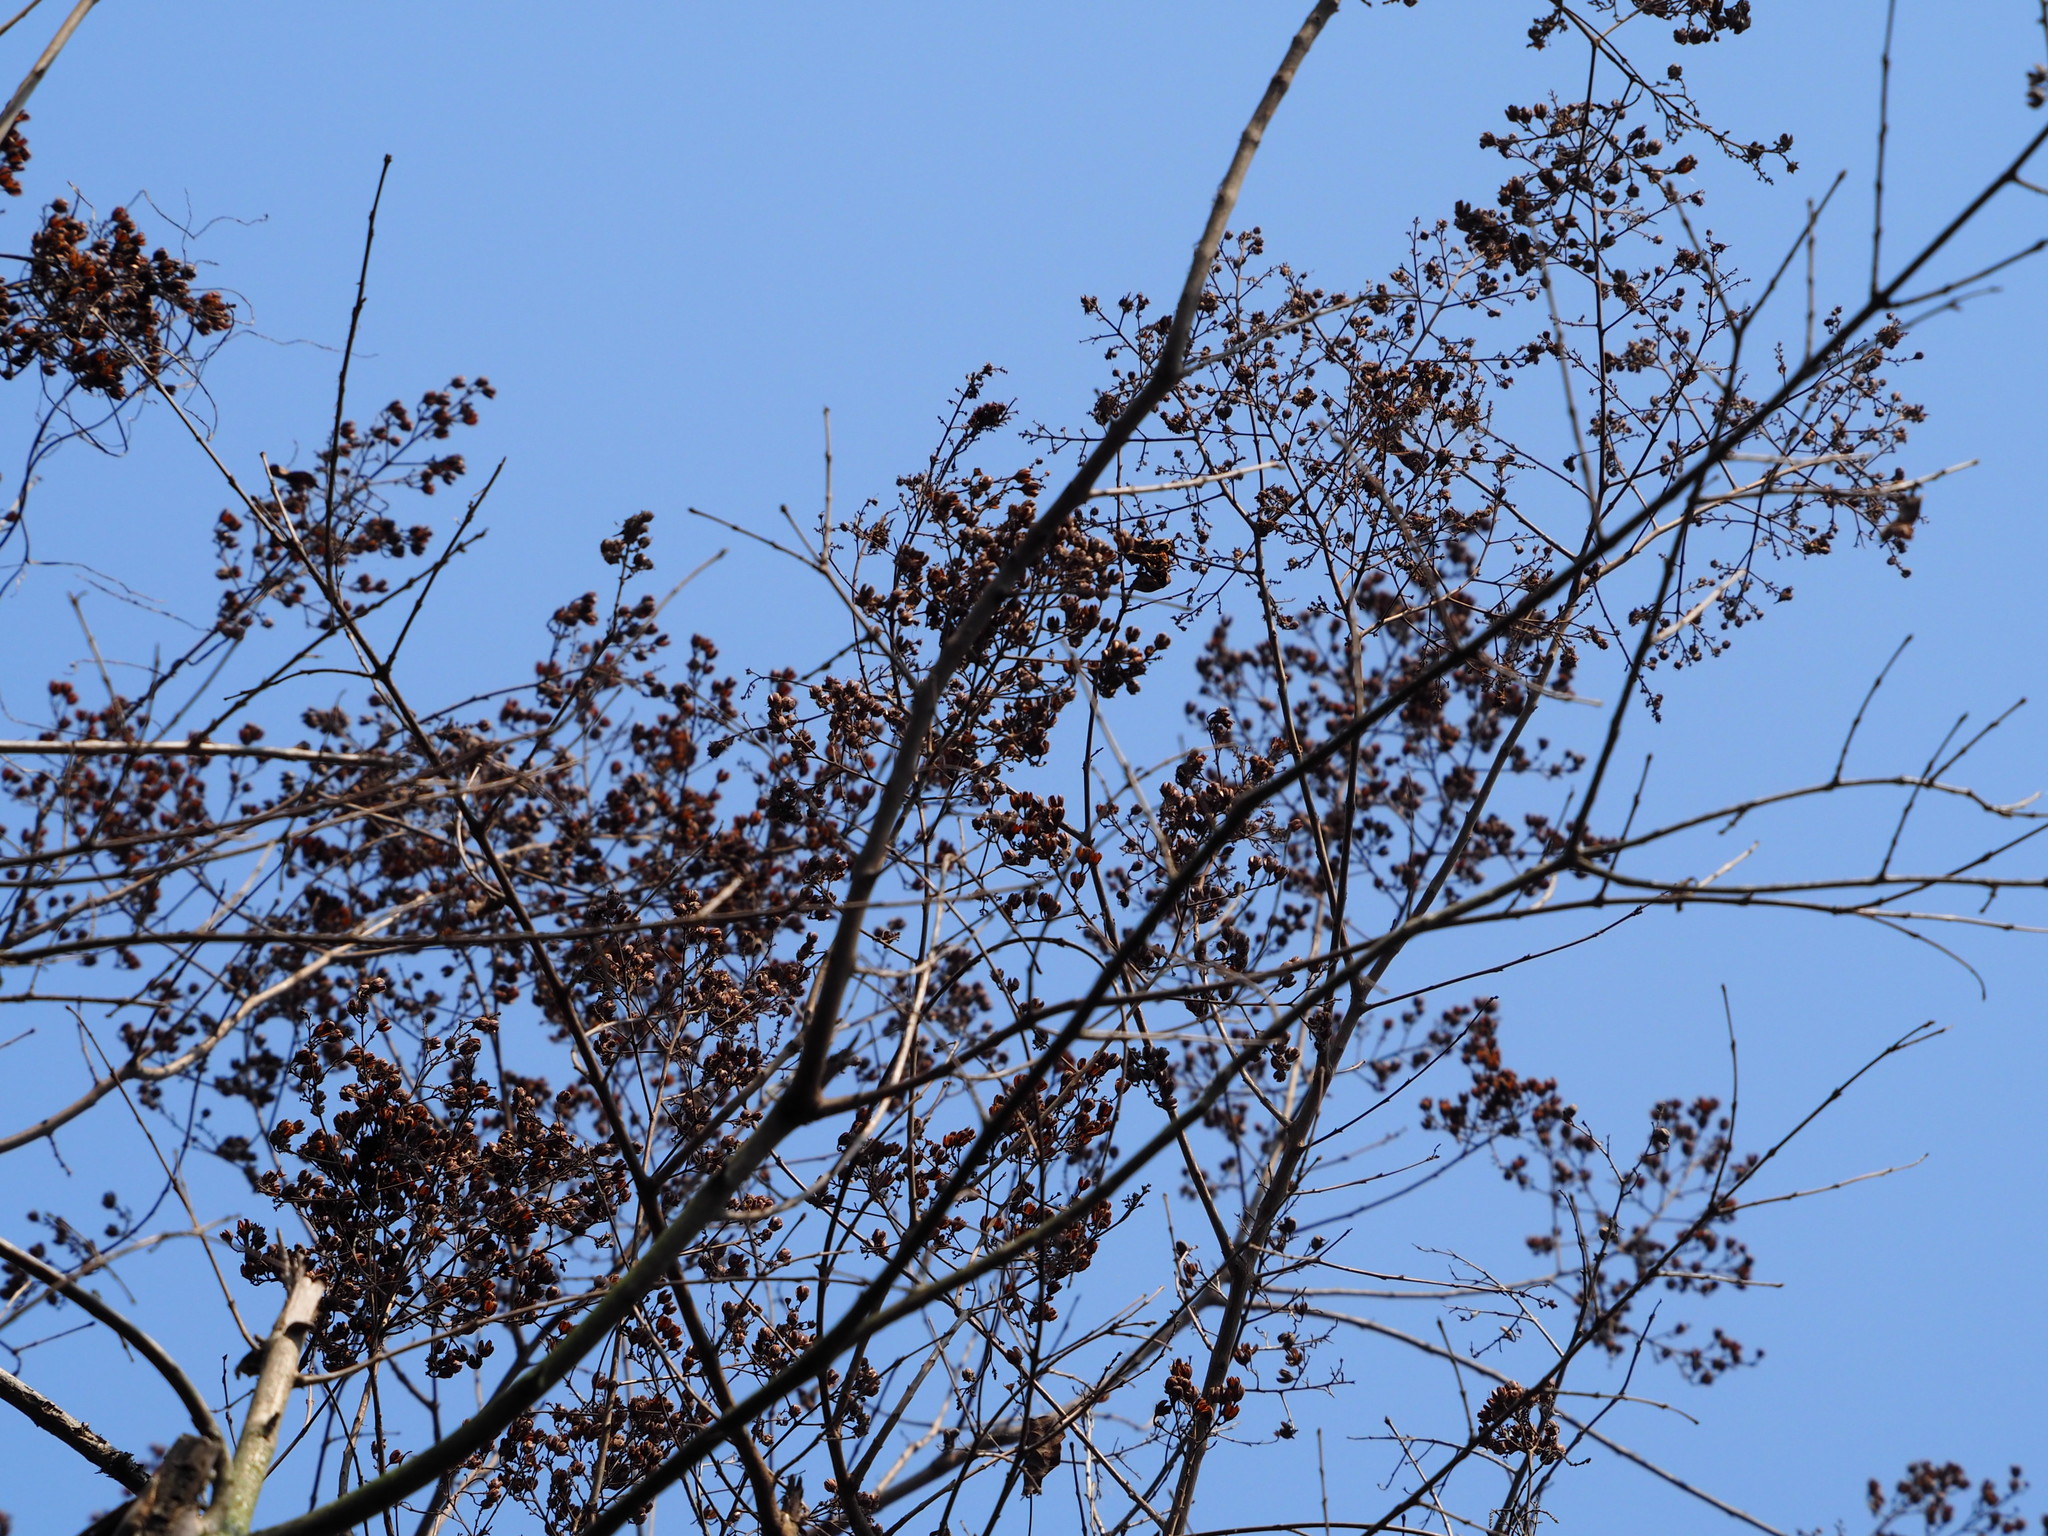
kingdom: Plantae
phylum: Tracheophyta
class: Magnoliopsida
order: Myrtales
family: Lythraceae
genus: Lagerstroemia
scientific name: Lagerstroemia subcostata
